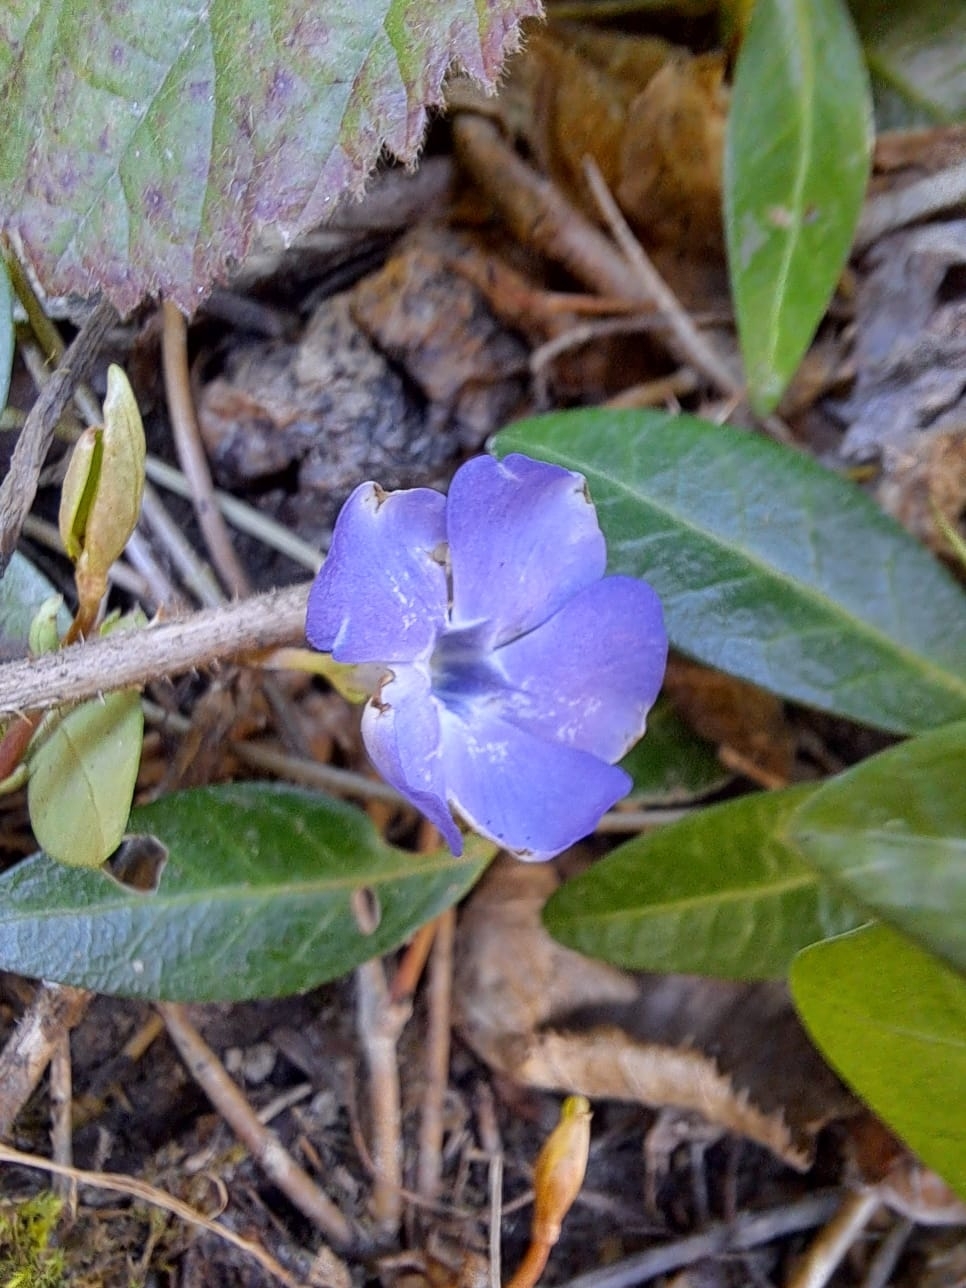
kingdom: Plantae
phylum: Tracheophyta
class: Magnoliopsida
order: Gentianales
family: Apocynaceae
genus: Vinca
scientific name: Vinca minor
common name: Lesser periwinkle
